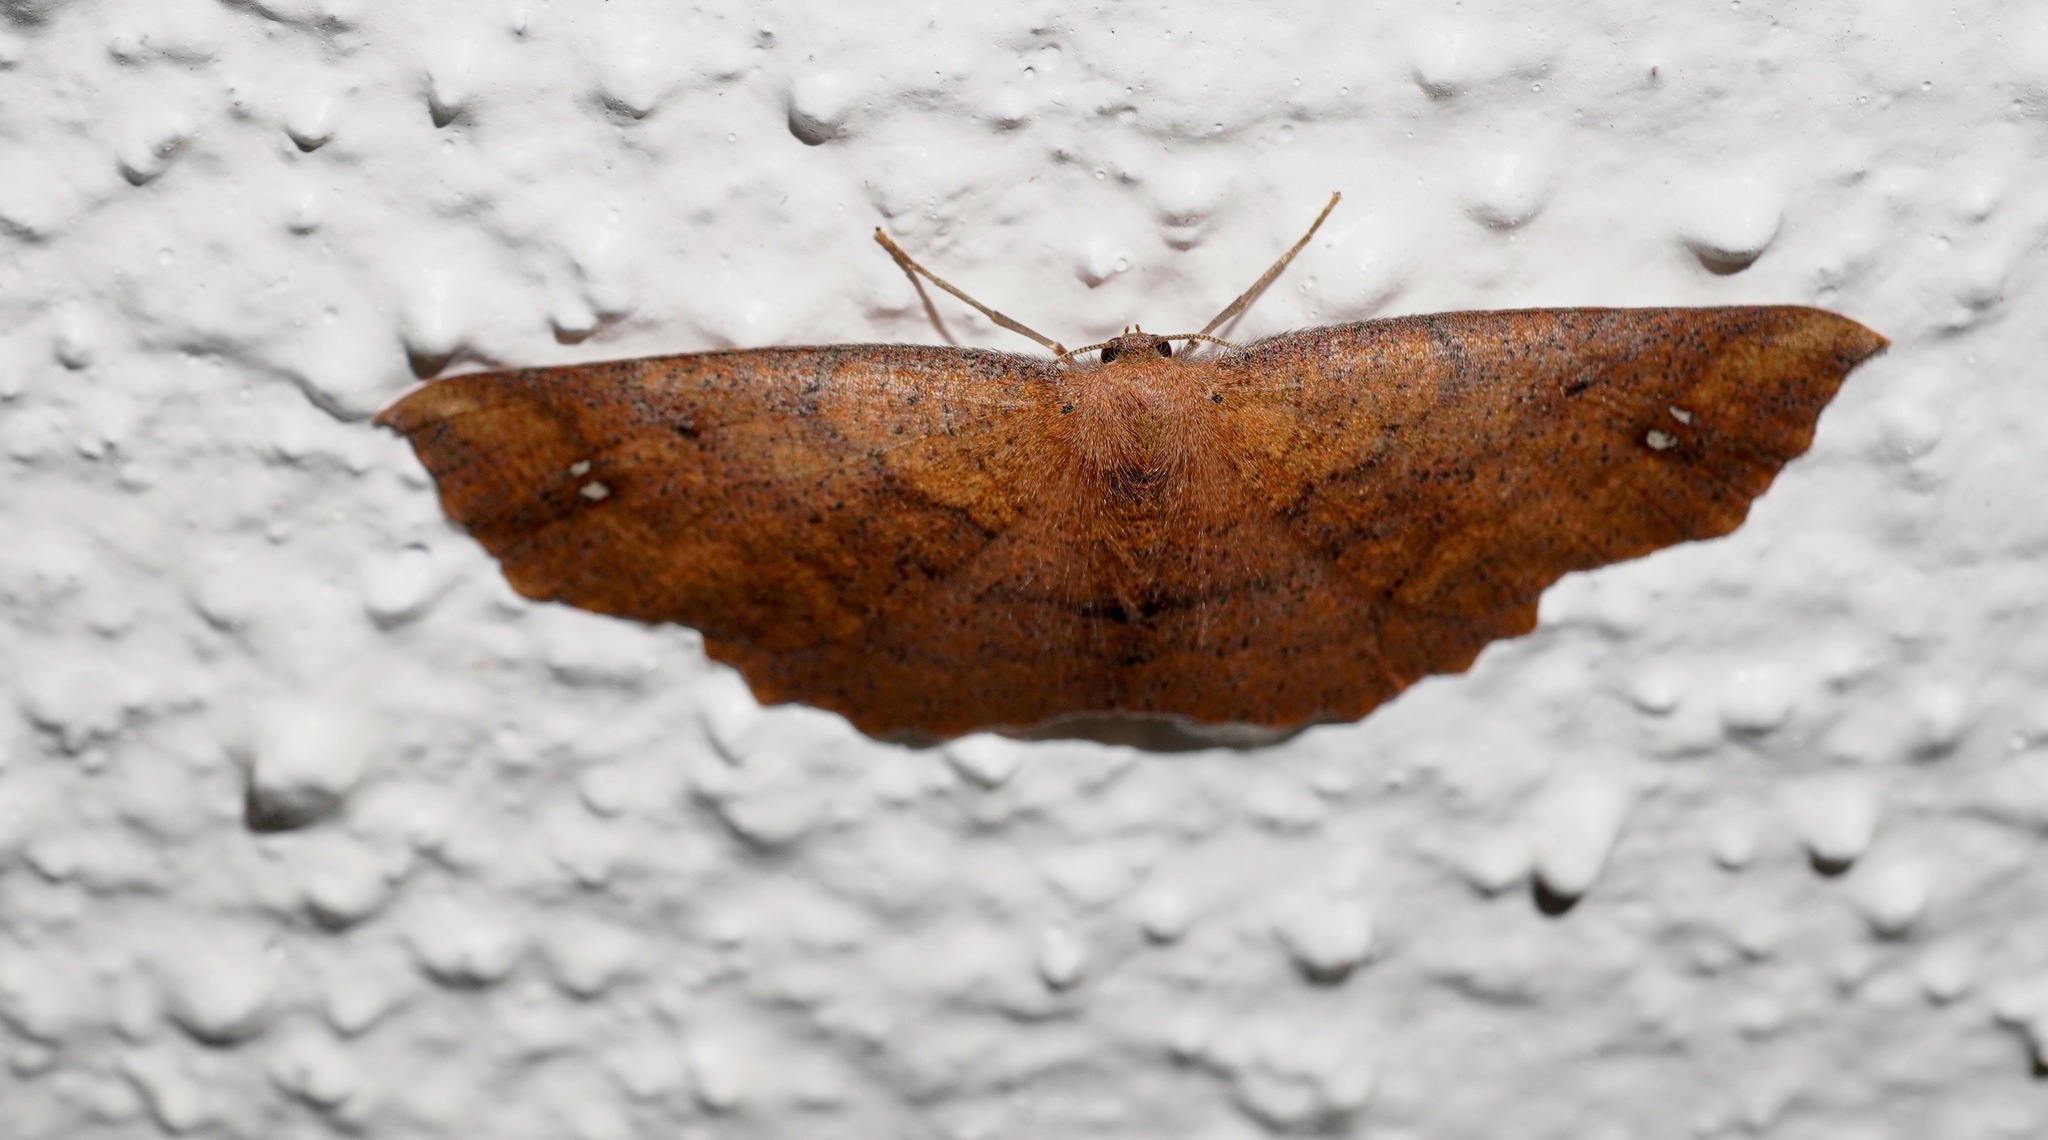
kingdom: Animalia
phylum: Arthropoda
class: Insecta
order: Lepidoptera
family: Geometridae
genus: Xyridacma
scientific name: Xyridacma ustaria
